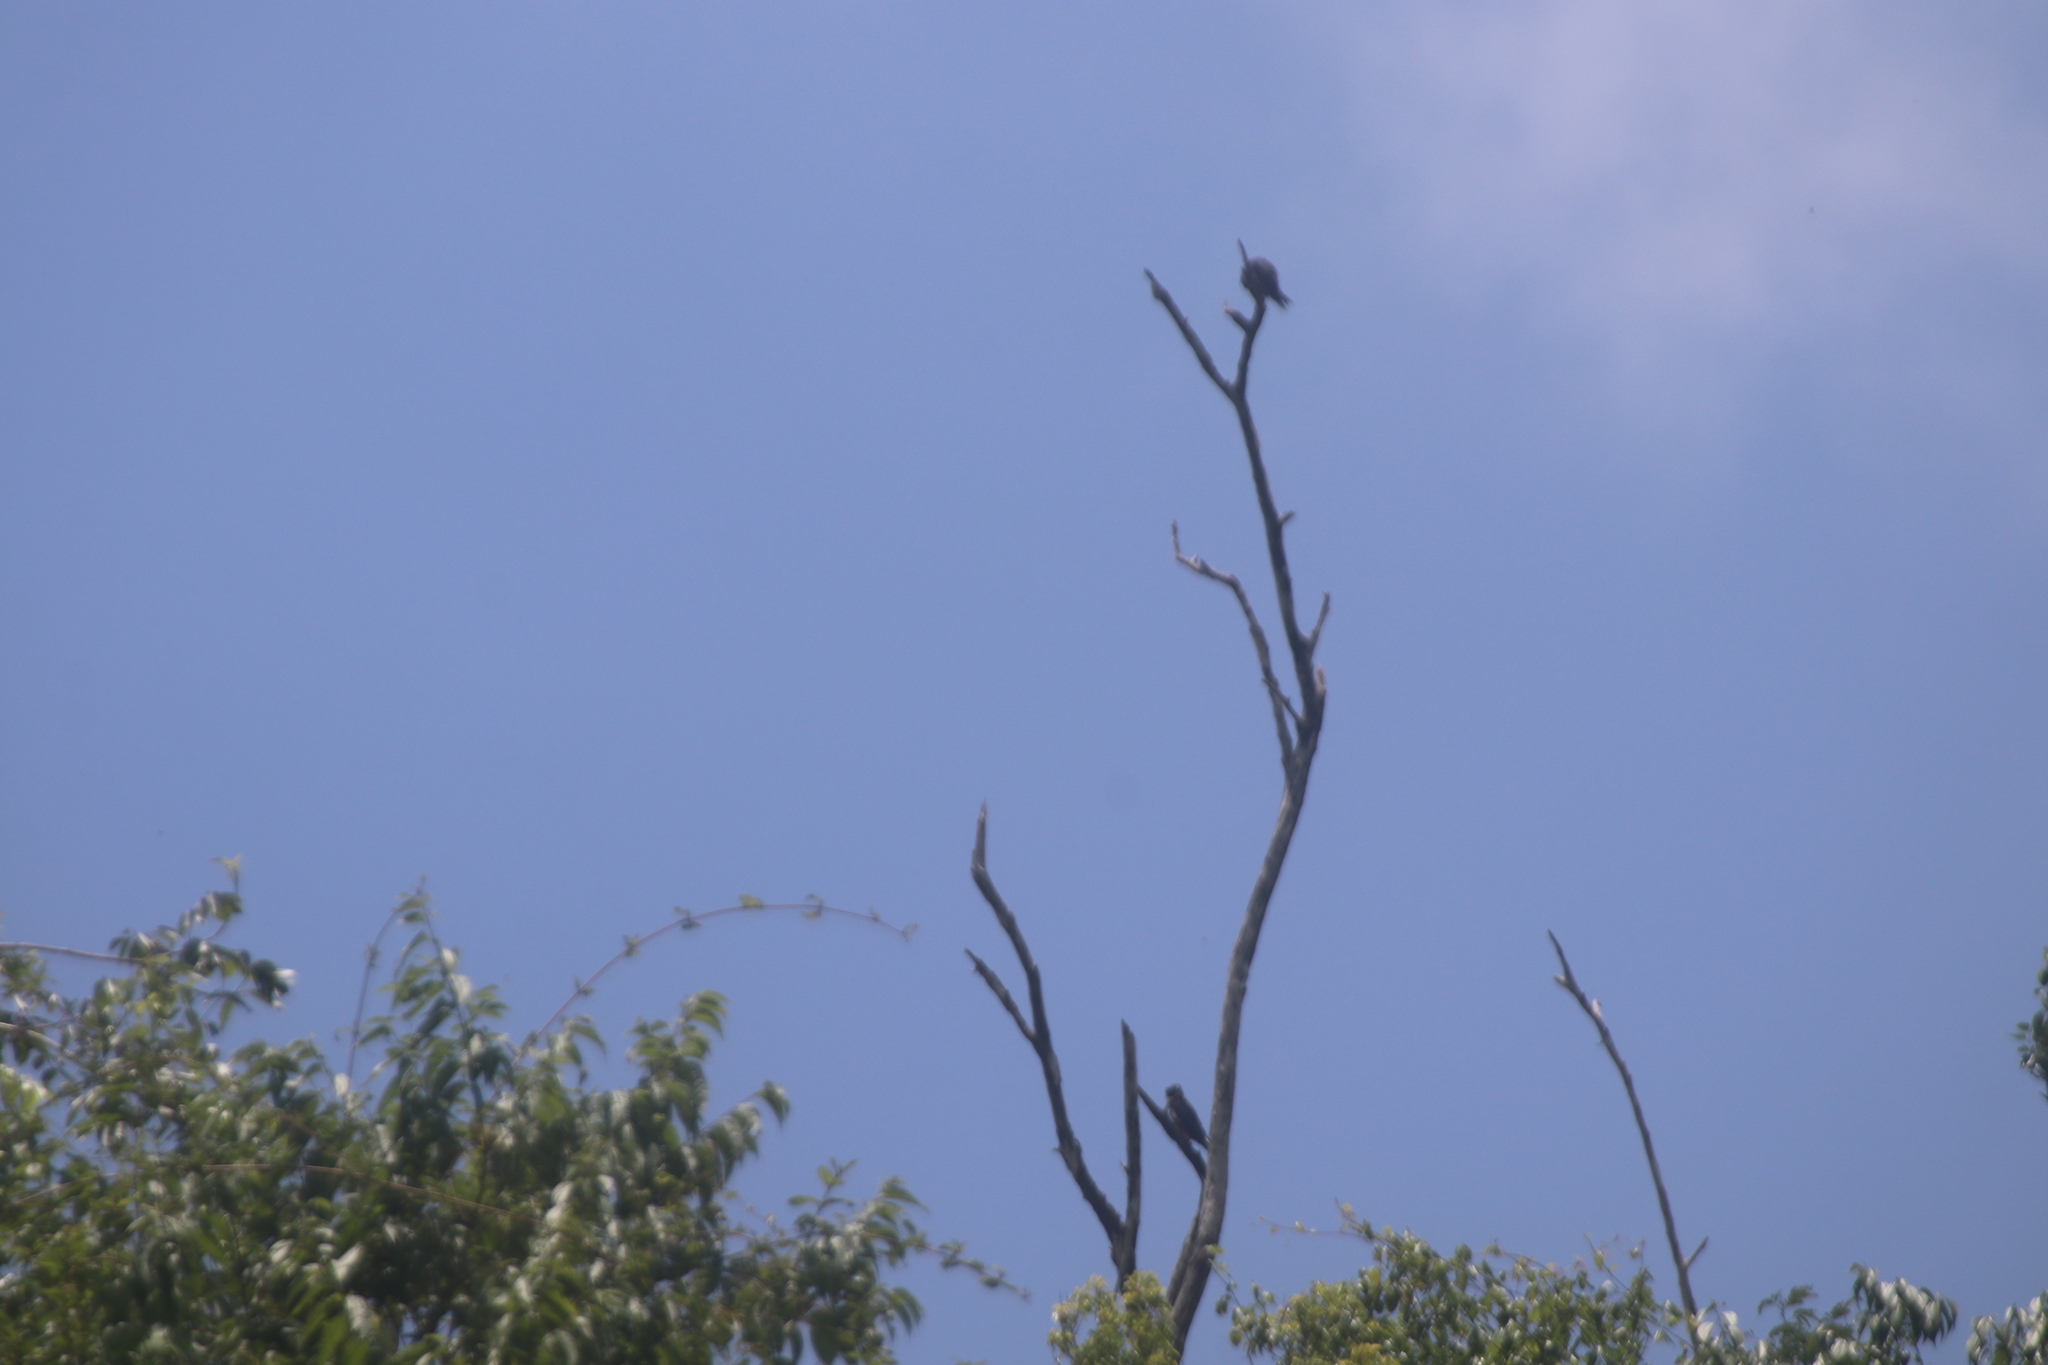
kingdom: Animalia
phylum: Chordata
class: Aves
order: Falconiformes
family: Falconidae
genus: Falco
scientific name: Falco rufigularis
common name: Bat falcon
